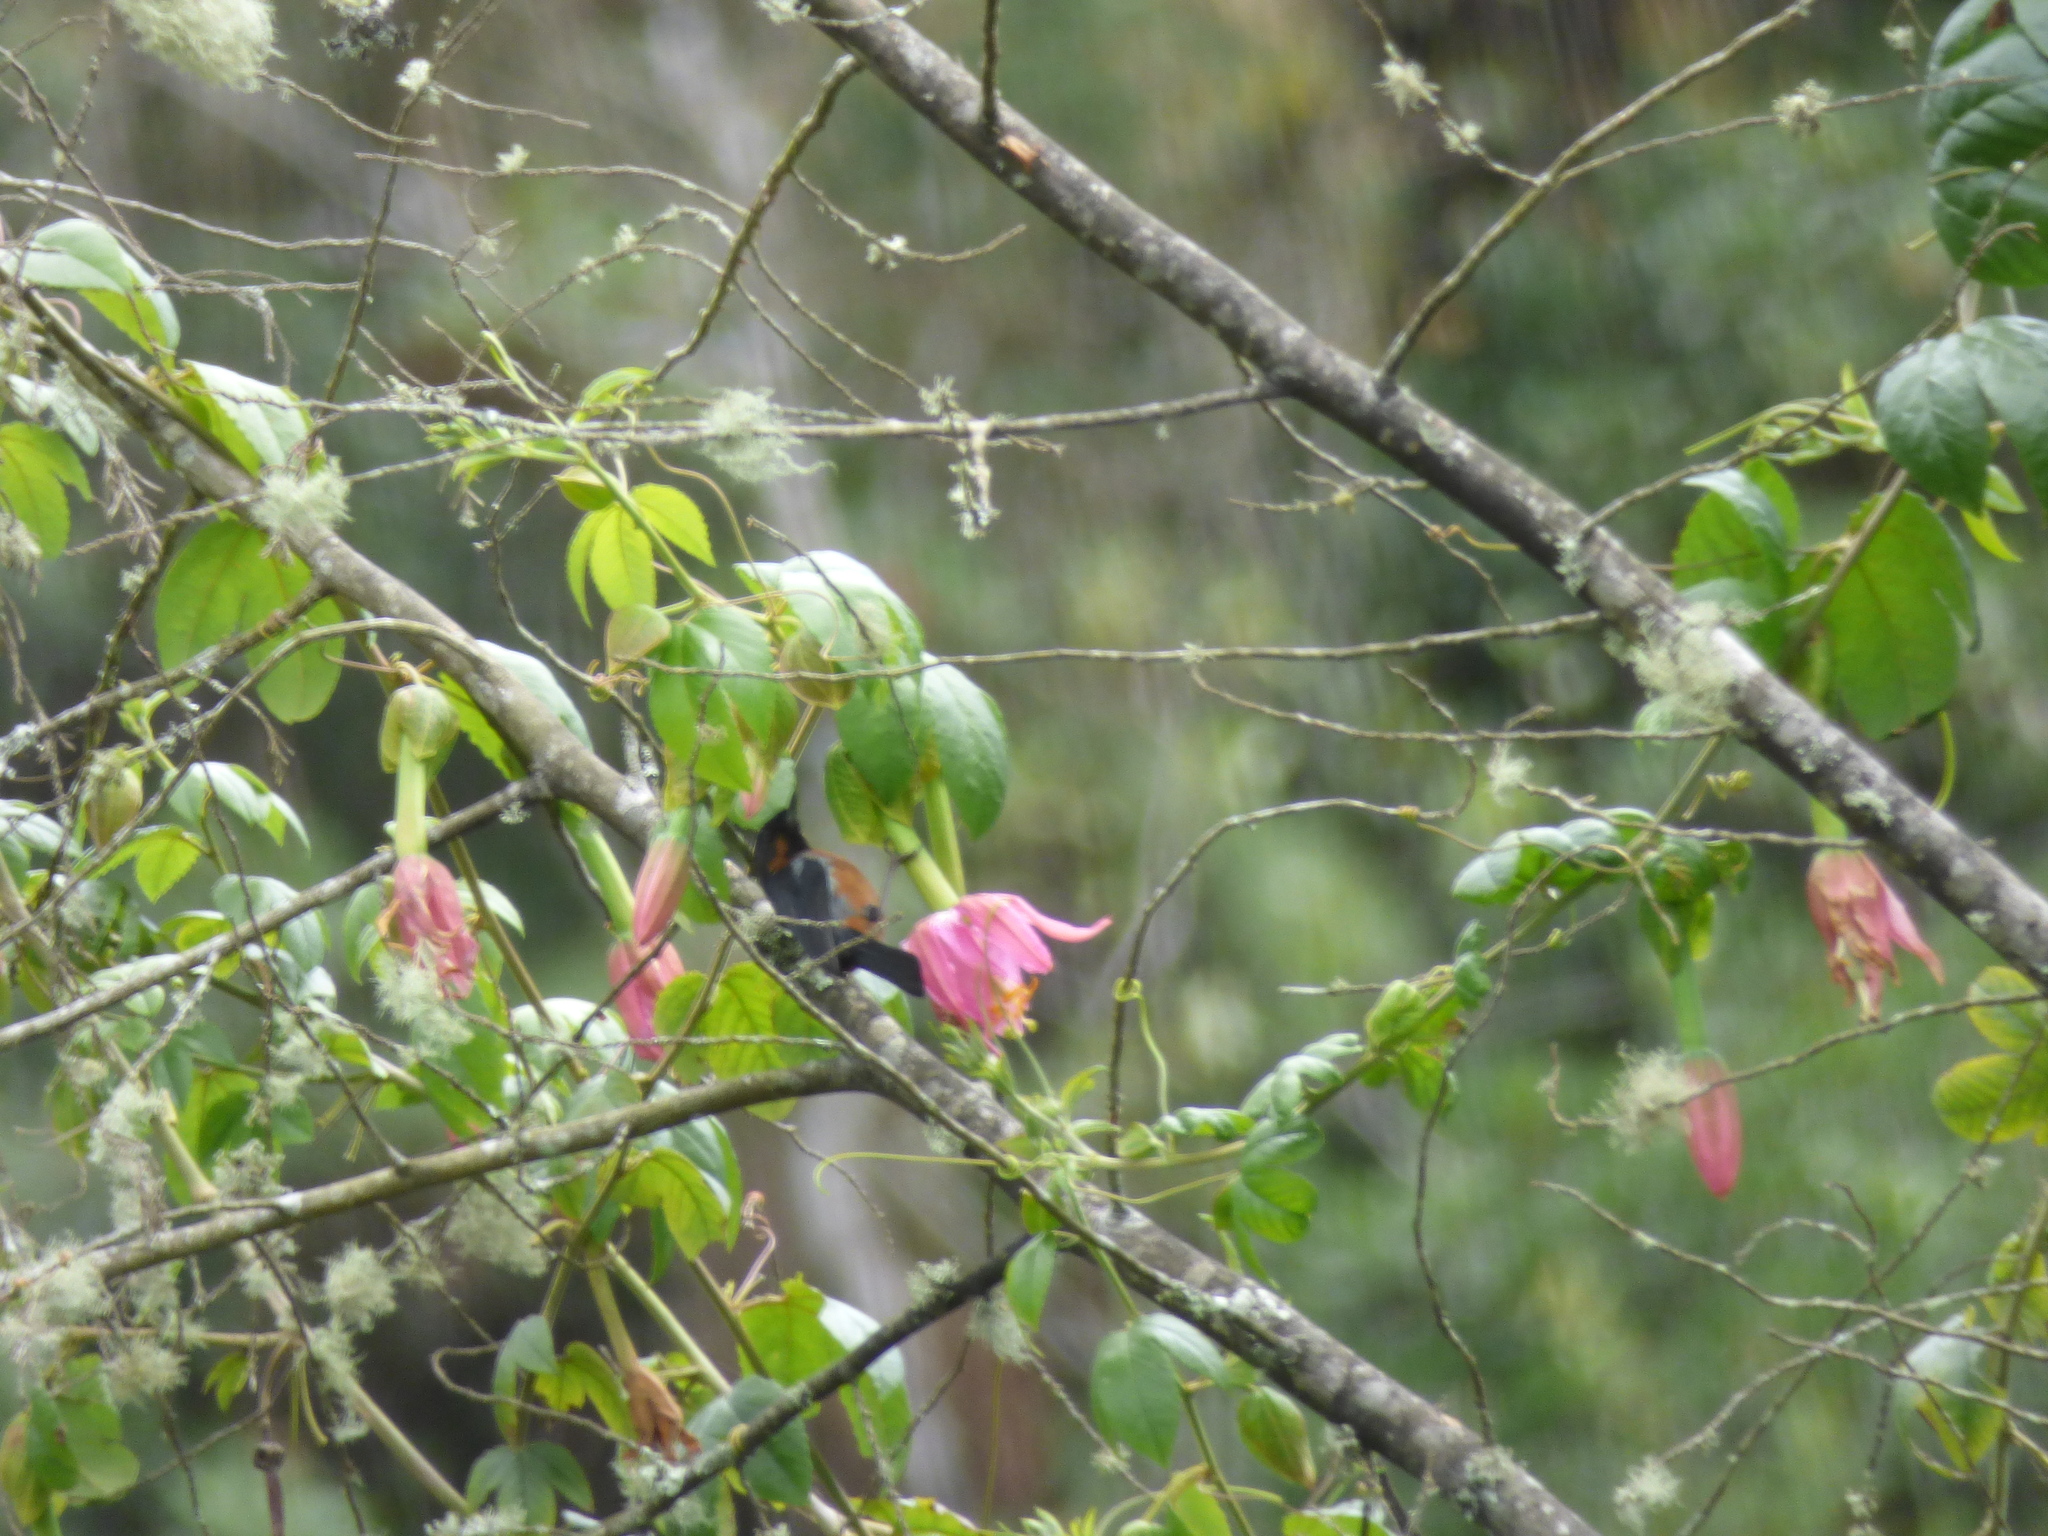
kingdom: Animalia
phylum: Chordata
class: Aves
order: Passeriformes
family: Thraupidae
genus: Diglossa
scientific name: Diglossa brunneiventris
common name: Black-throated flowerpiercer
